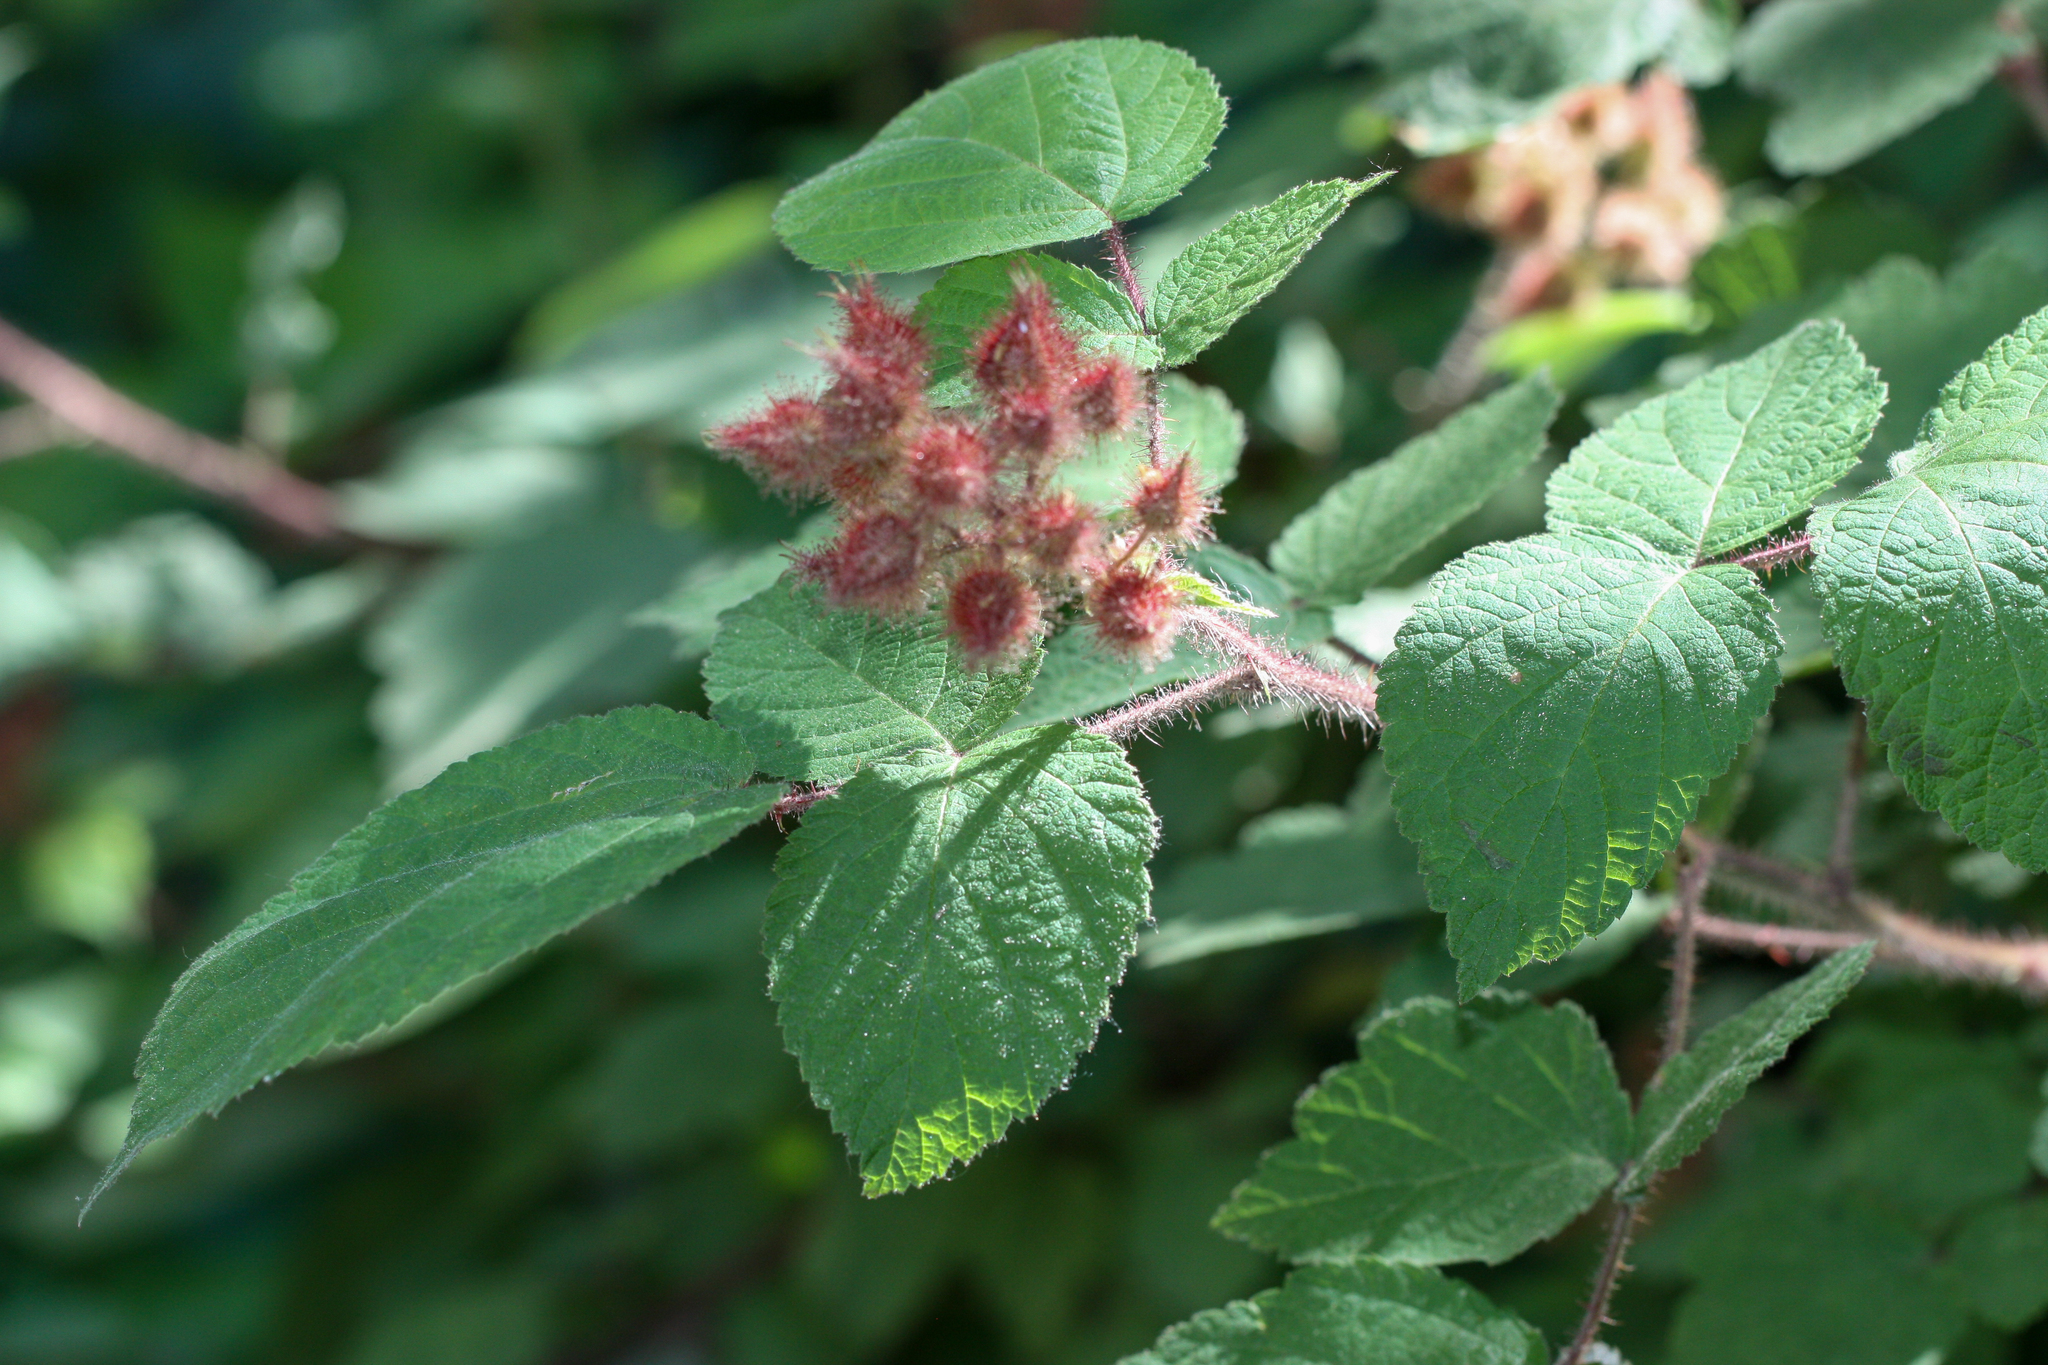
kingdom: Plantae
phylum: Tracheophyta
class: Magnoliopsida
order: Rosales
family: Rosaceae
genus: Rubus
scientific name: Rubus phoenicolasius
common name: Japanese wineberry
